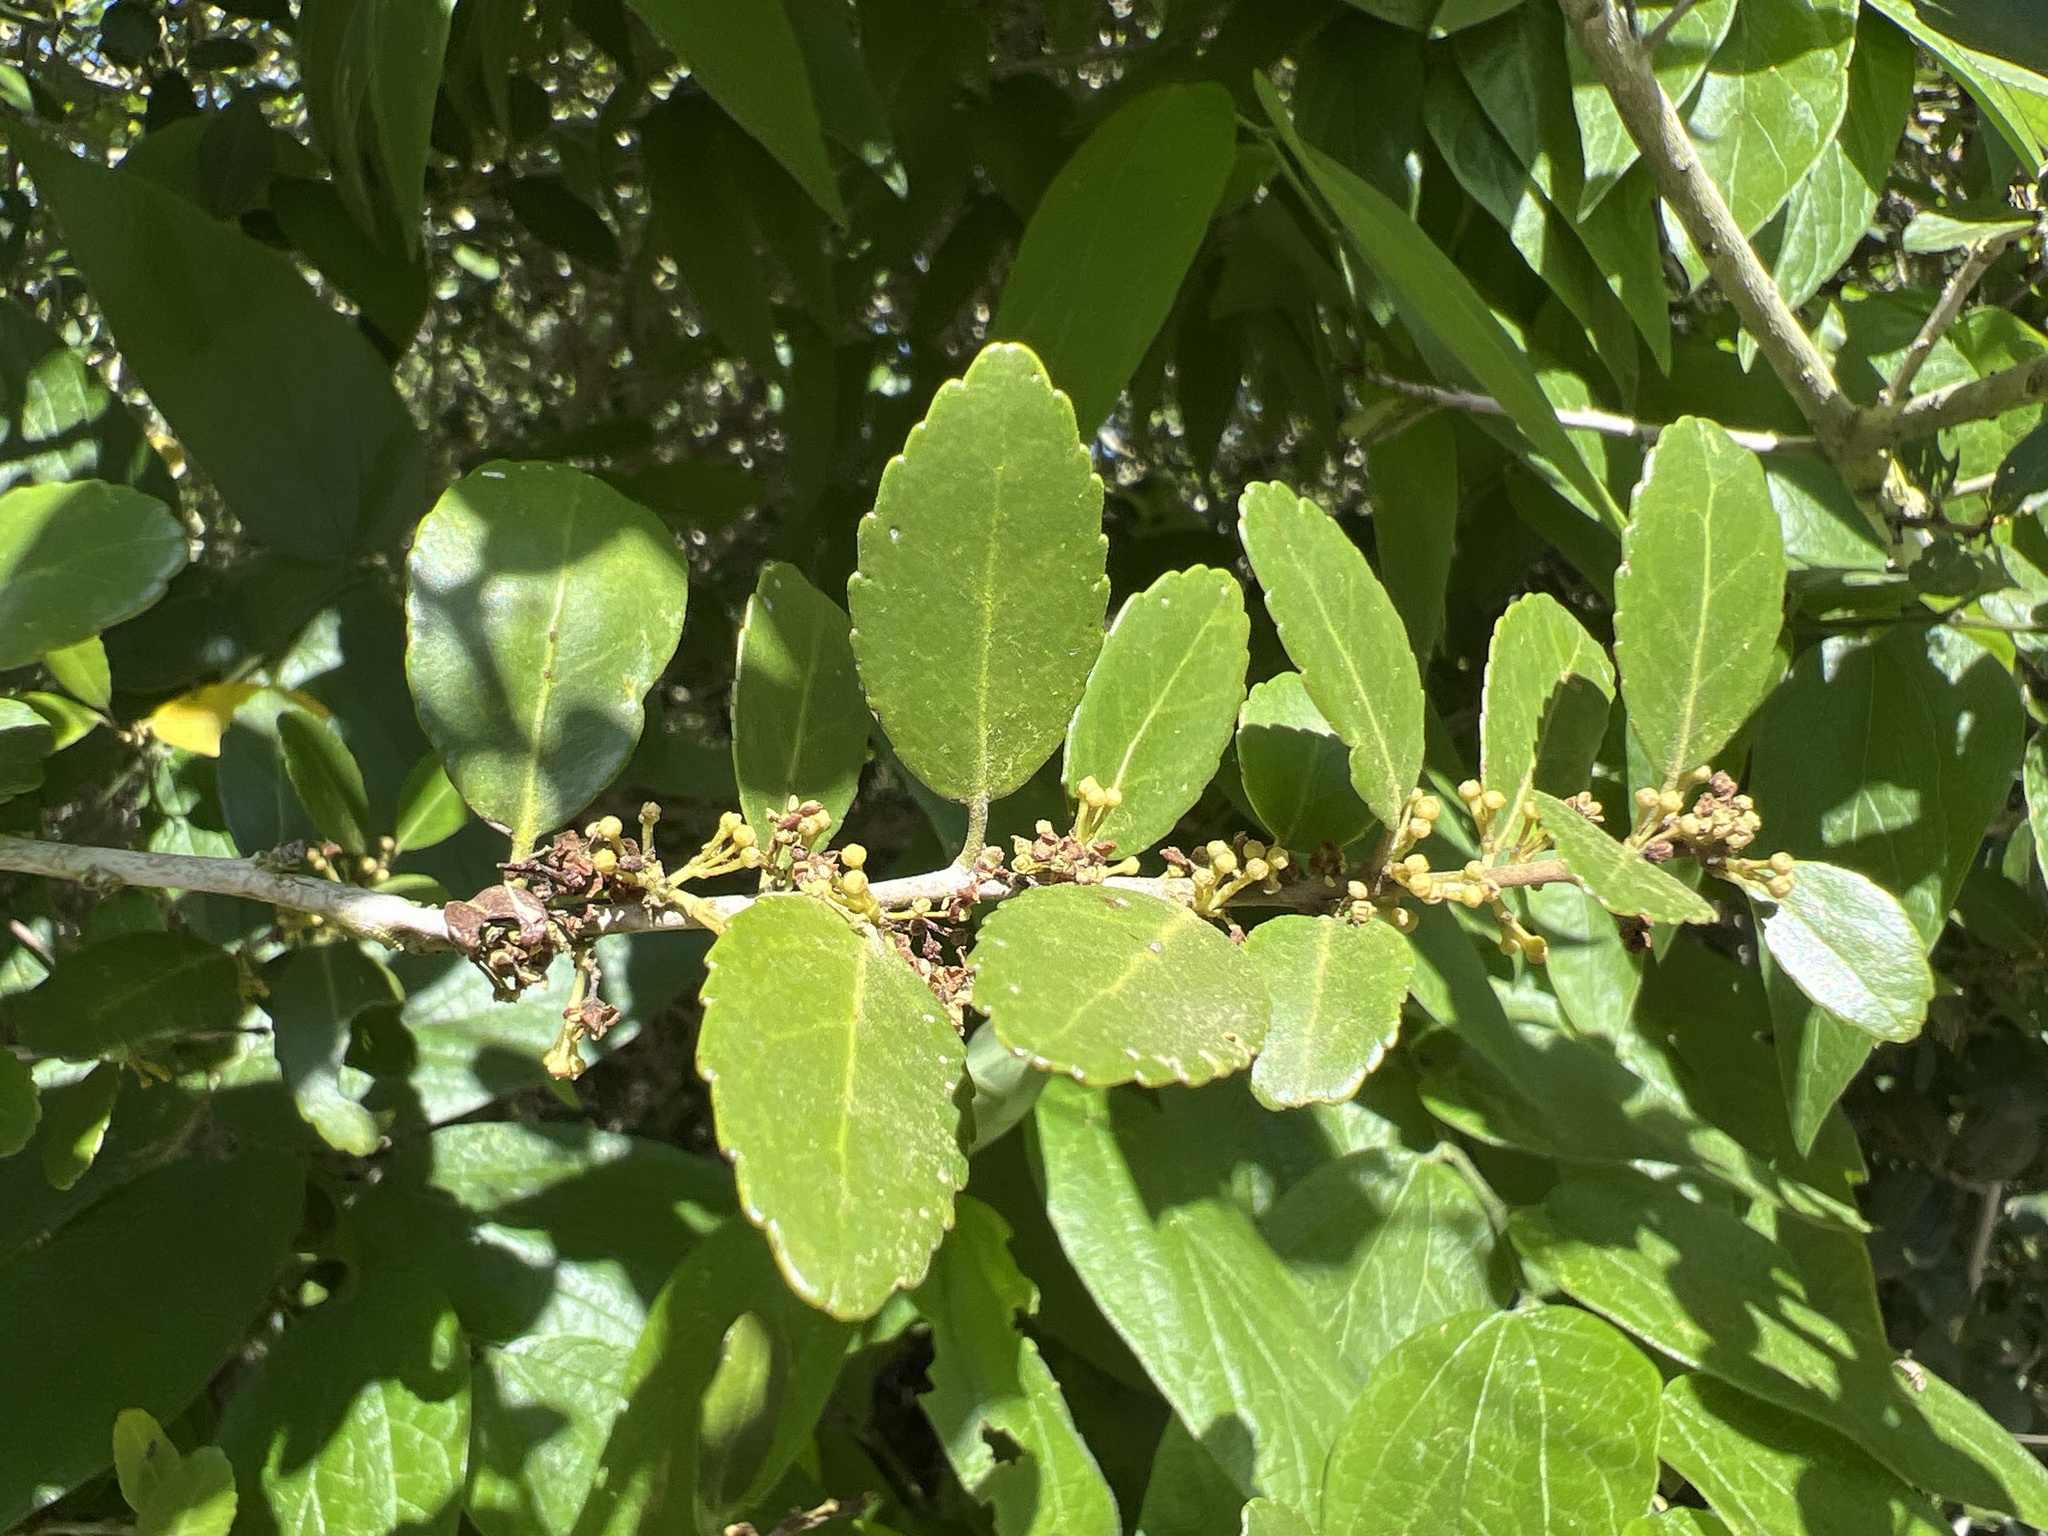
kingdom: Plantae
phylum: Tracheophyta
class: Magnoliopsida
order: Aquifoliales
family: Aquifoliaceae
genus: Ilex
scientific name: Ilex vomitoria
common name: Yaupon holly
